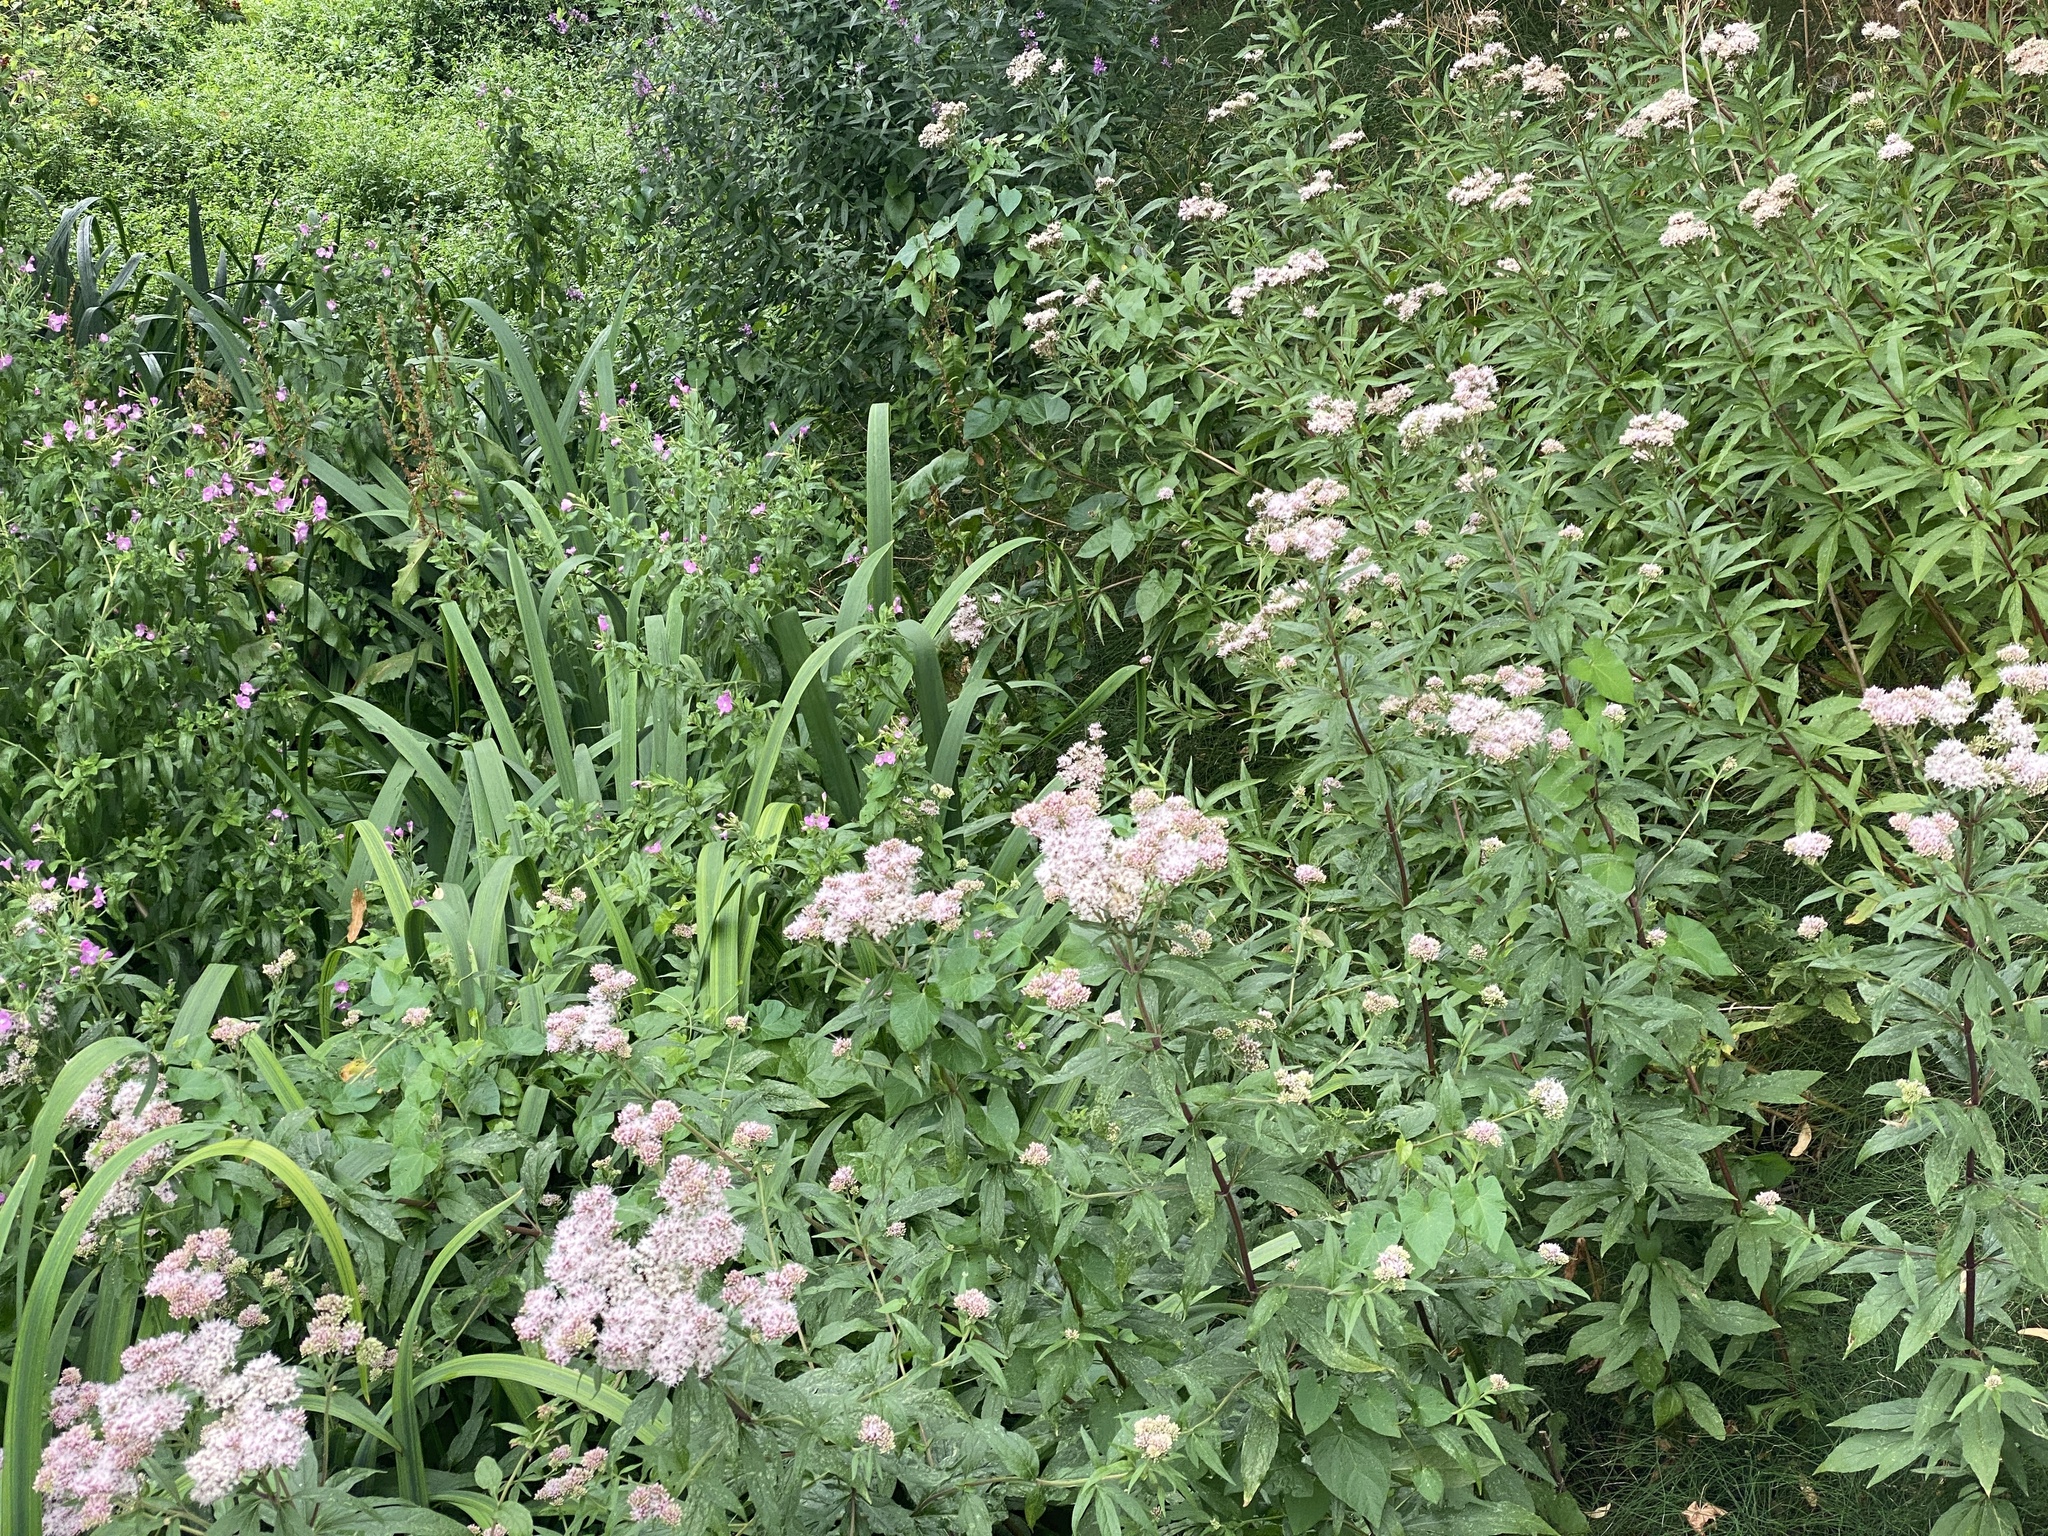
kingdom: Plantae
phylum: Tracheophyta
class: Magnoliopsida
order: Asterales
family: Asteraceae
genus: Eupatorium
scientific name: Eupatorium cannabinum
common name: Hemp-agrimony
